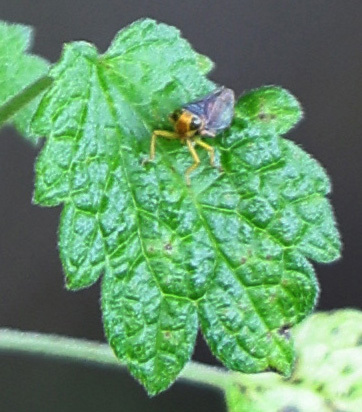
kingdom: Animalia
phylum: Arthropoda
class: Insecta
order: Hemiptera
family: Cicadellidae
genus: Jikradia
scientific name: Jikradia olitoria
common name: Coppery leafhopper
